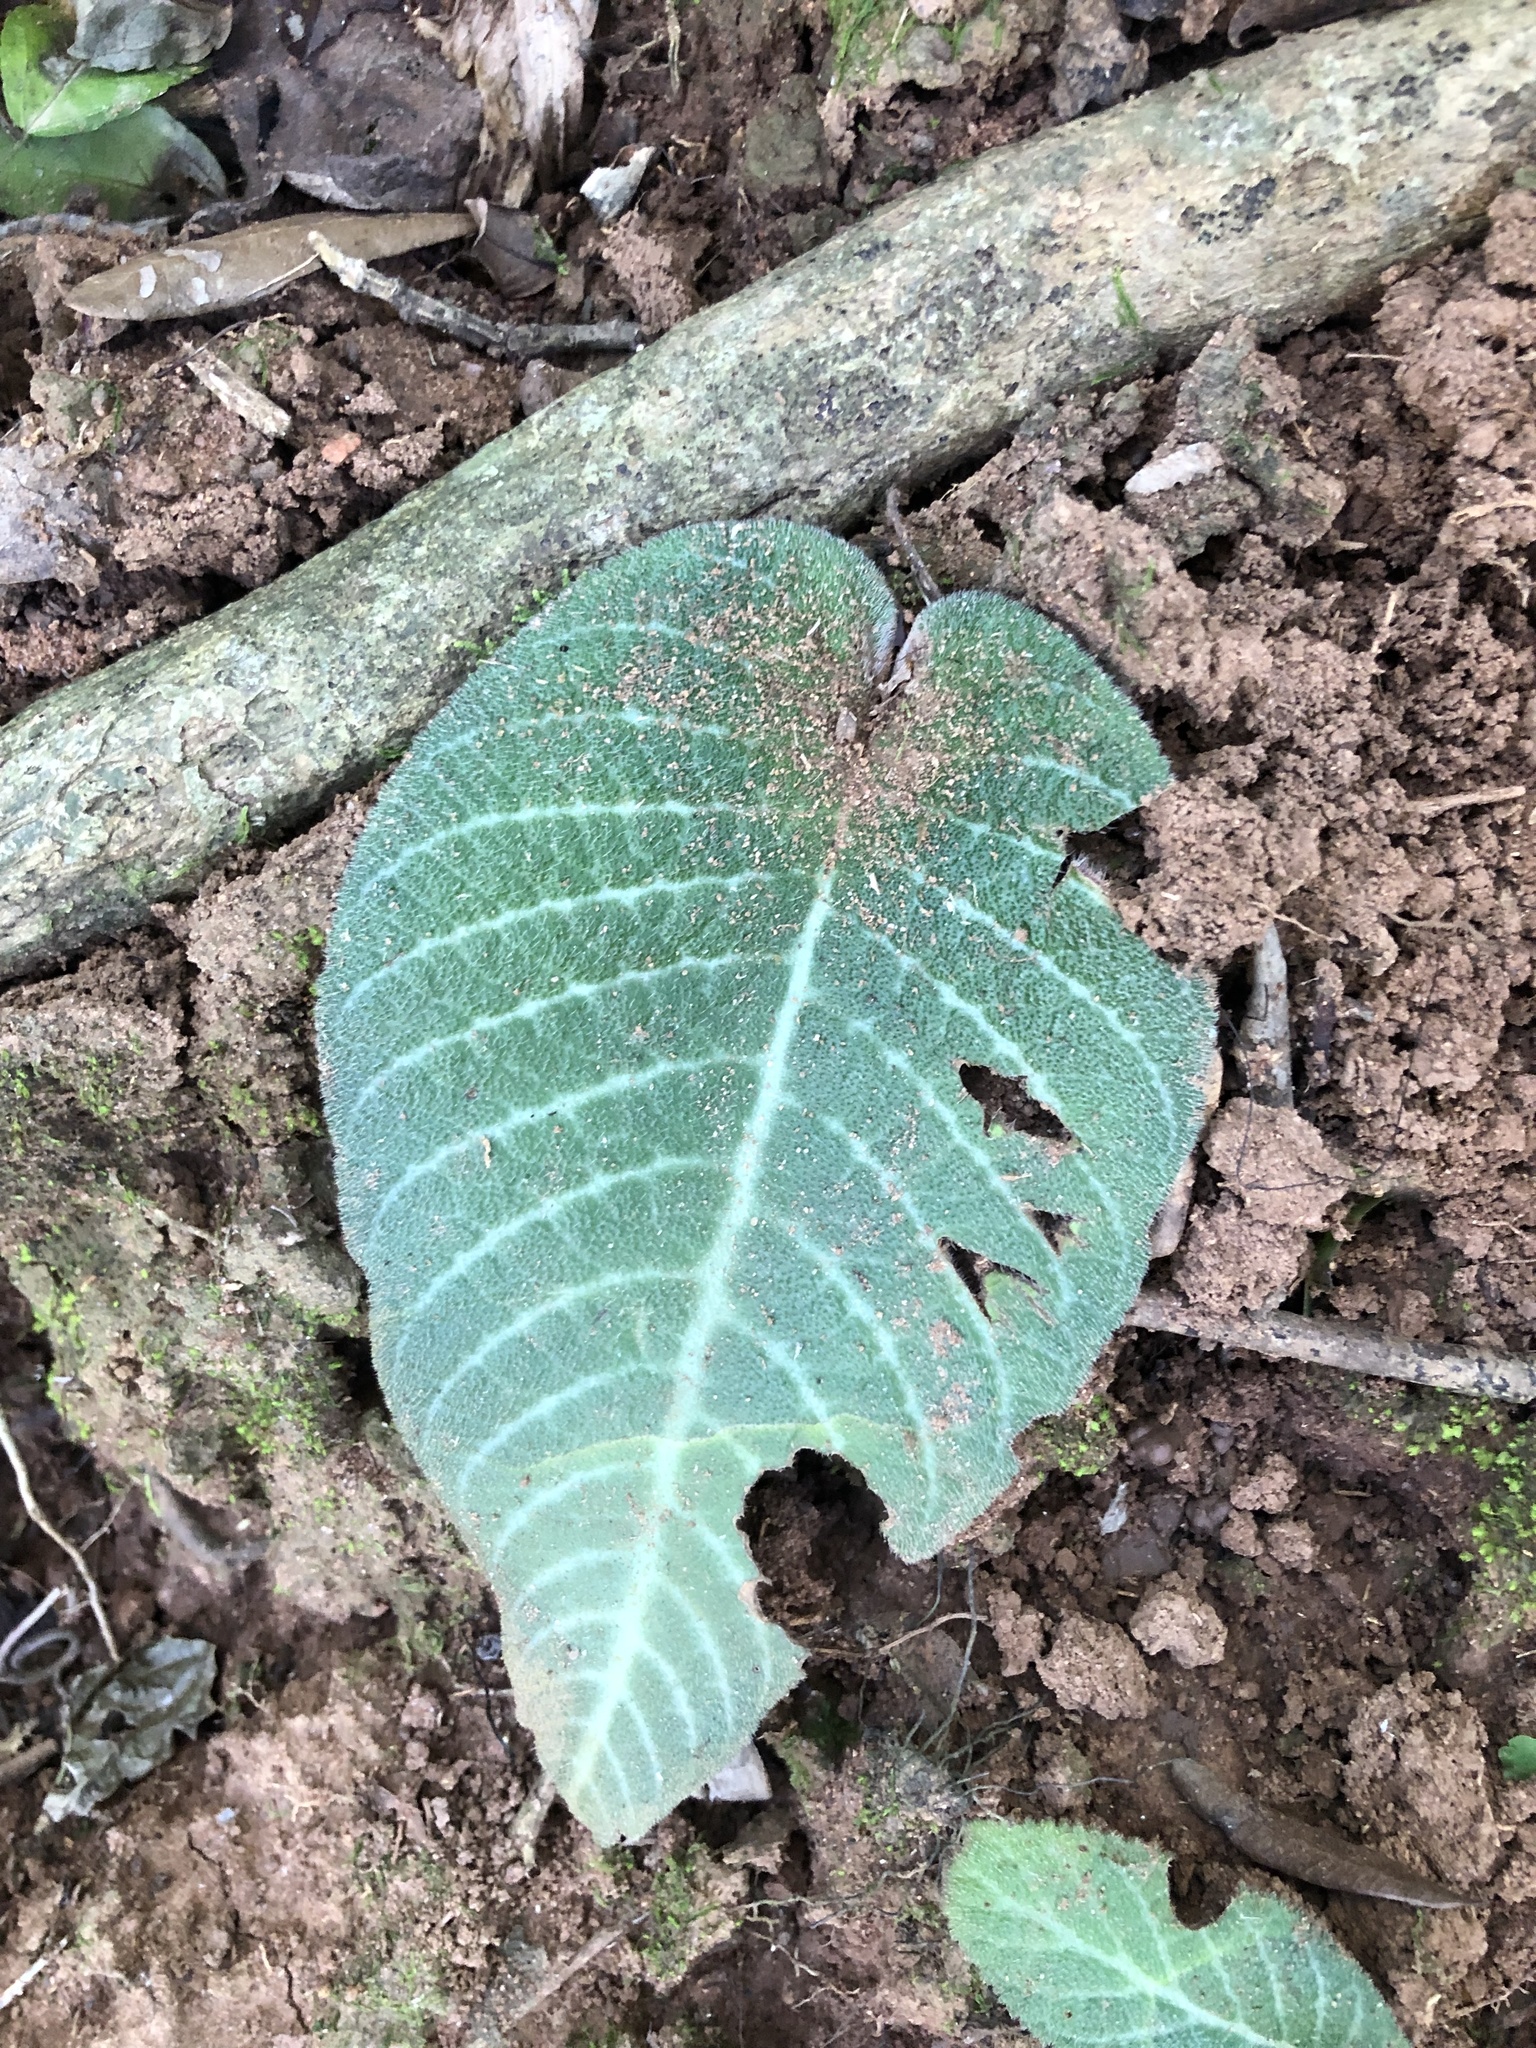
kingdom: Plantae
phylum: Tracheophyta
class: Magnoliopsida
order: Lamiales
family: Gesneriaceae
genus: Streptocarpus
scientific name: Streptocarpus prolixus
